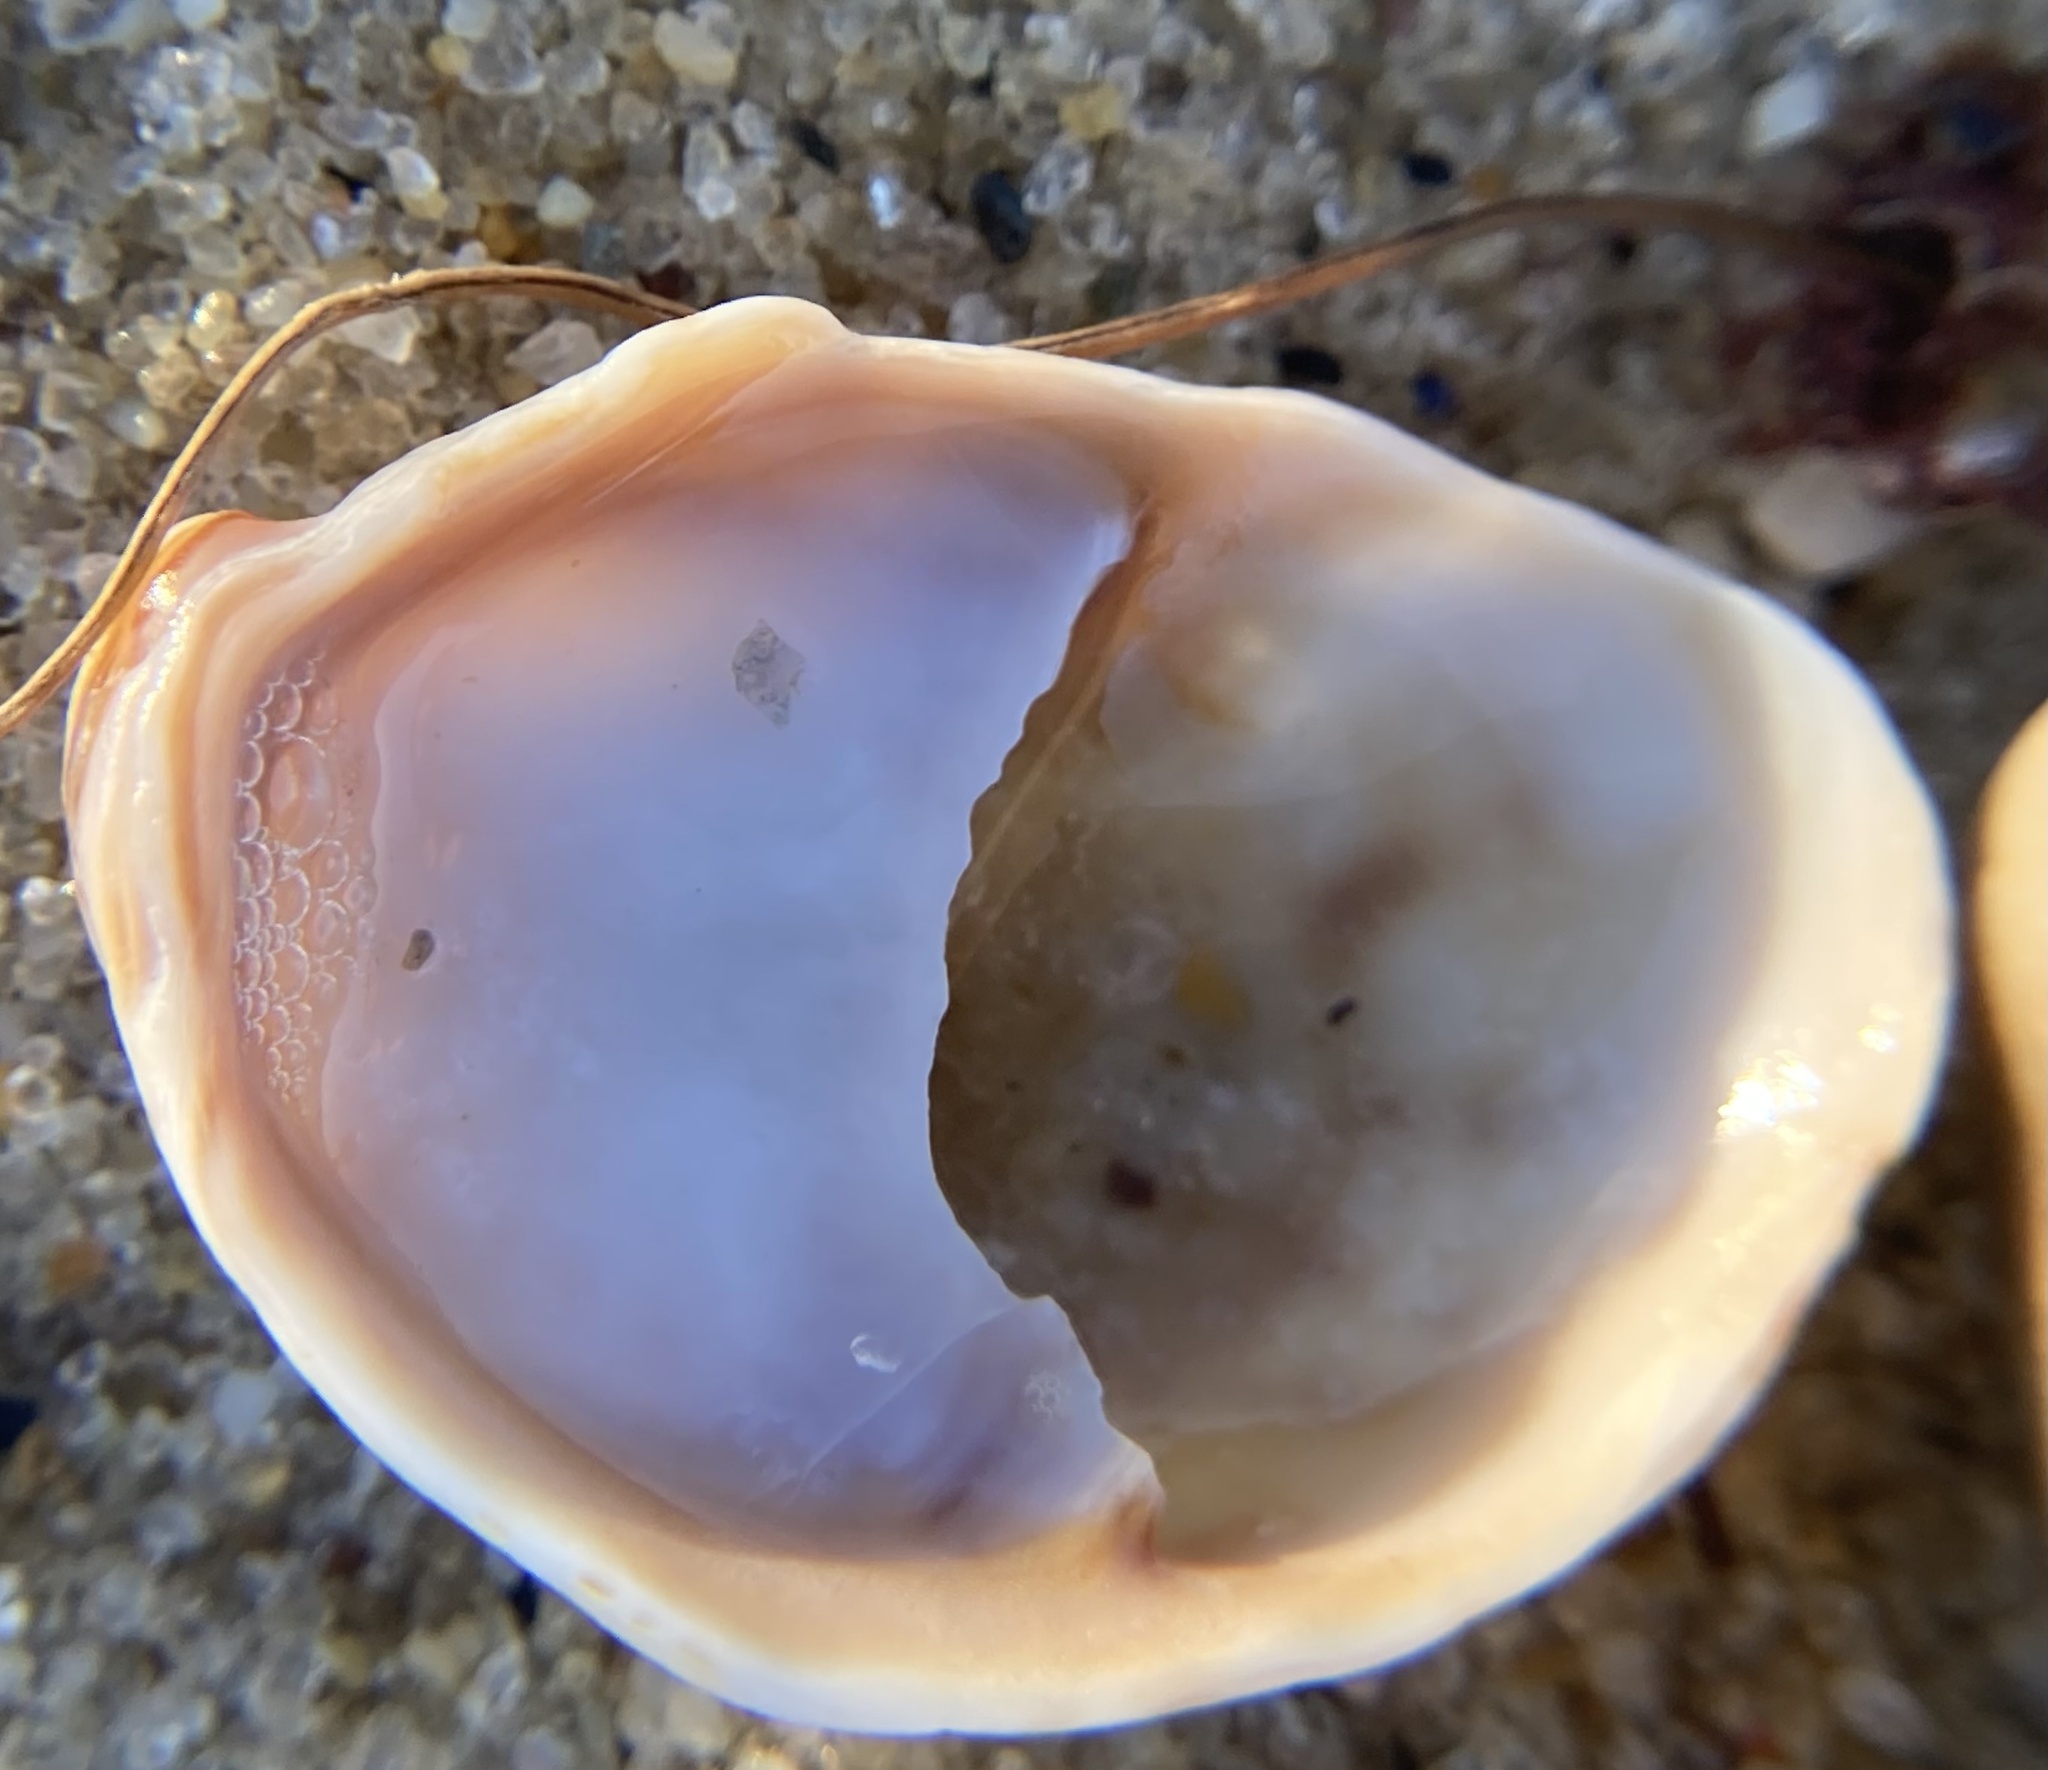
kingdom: Animalia
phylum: Mollusca
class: Gastropoda
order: Littorinimorpha
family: Calyptraeidae
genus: Crepidula
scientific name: Crepidula fornicata
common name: Slipper limpet
